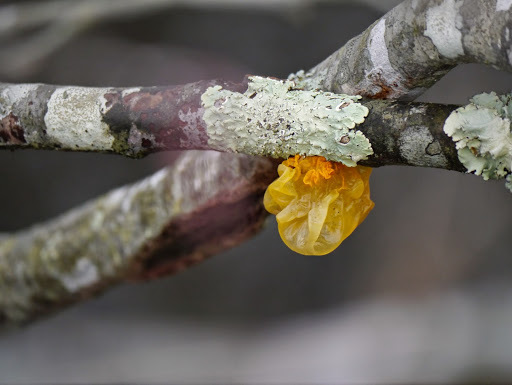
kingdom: Fungi
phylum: Basidiomycota
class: Tremellomycetes
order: Tremellales
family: Tremellaceae
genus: Tremella
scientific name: Tremella mesenterica
